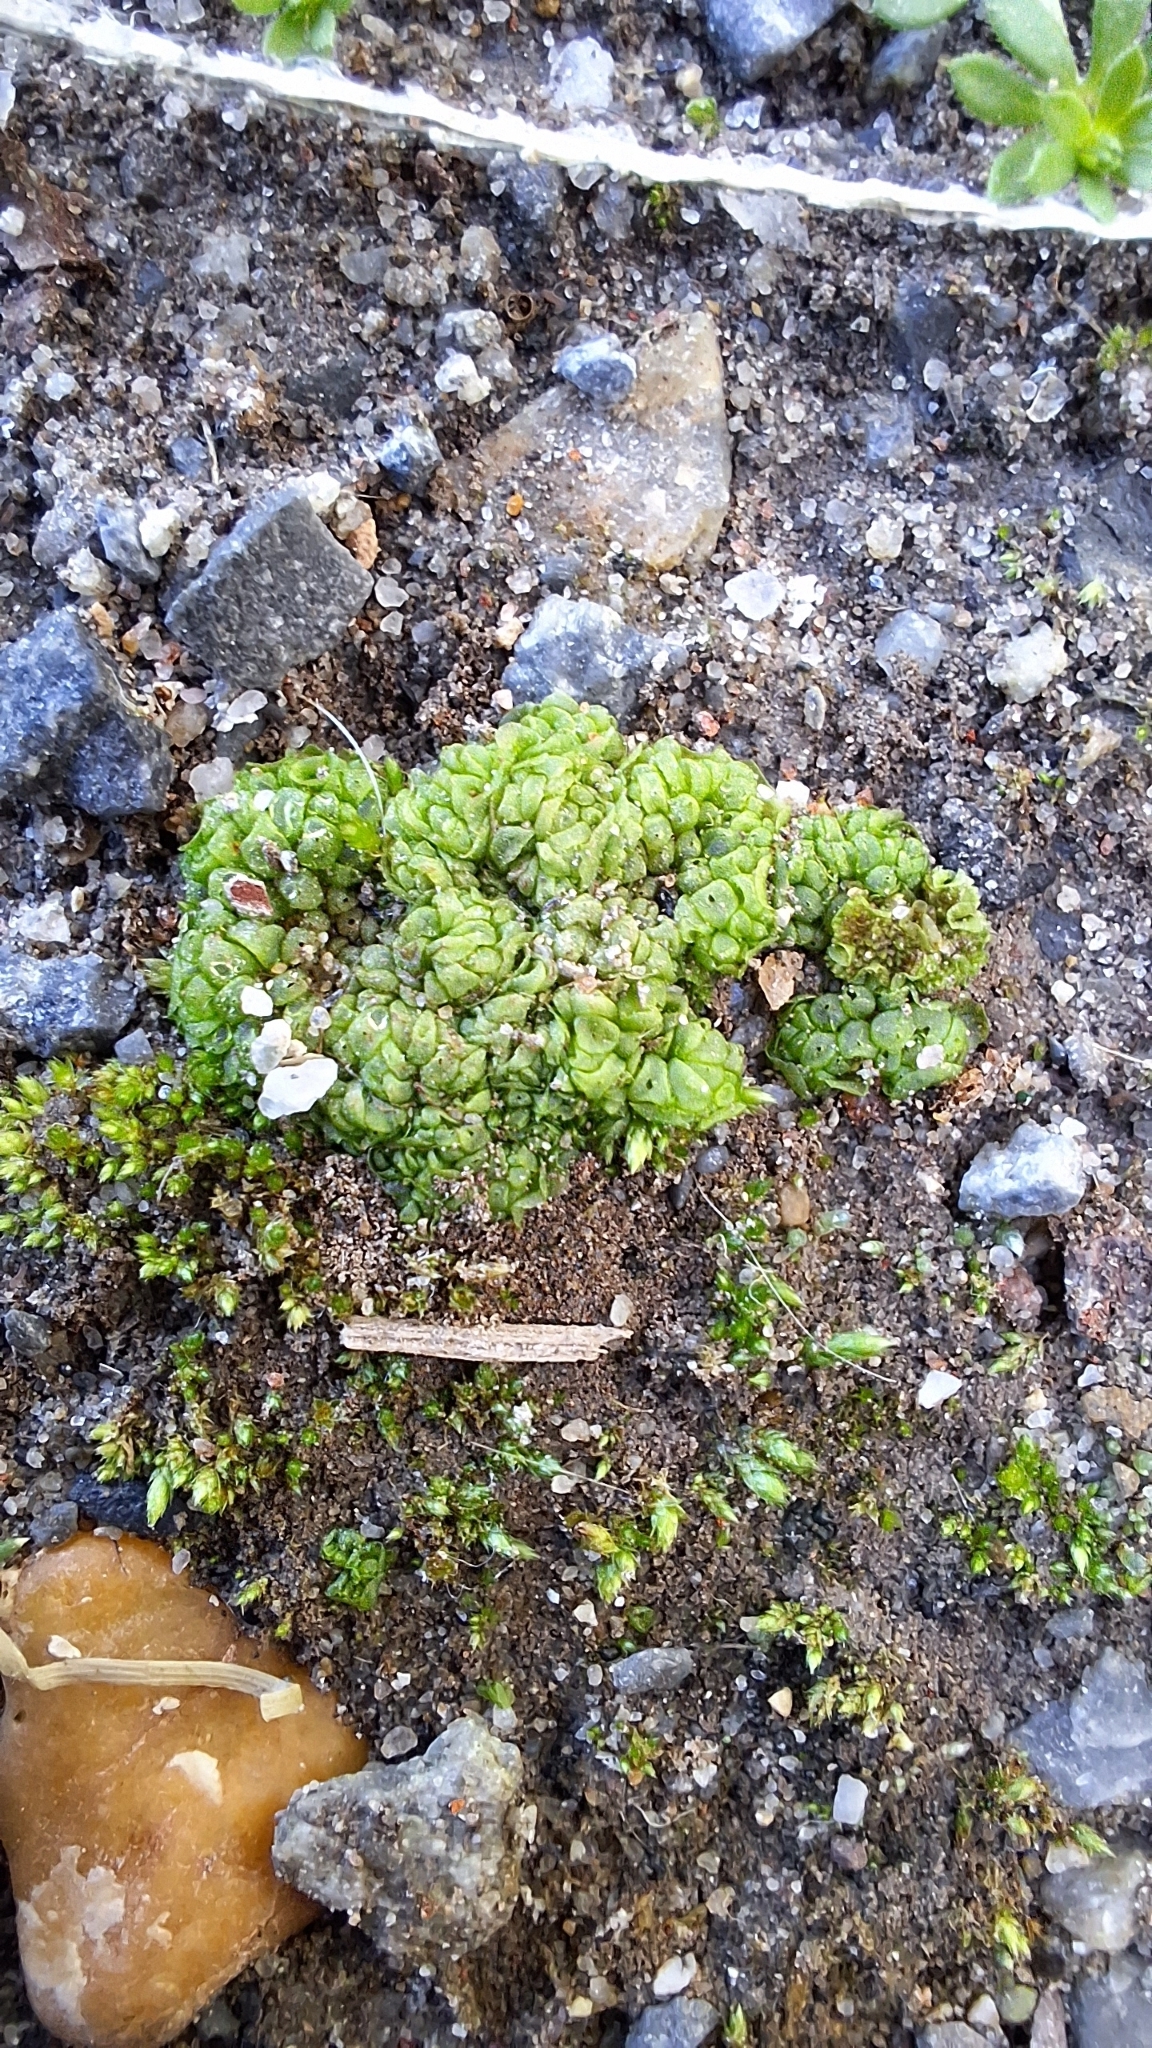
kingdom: Plantae
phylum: Marchantiophyta
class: Marchantiopsida
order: Sphaerocarpales
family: Sphaerocarpaceae
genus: Sphaerocarpos
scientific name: Sphaerocarpos texanus
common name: Texas balloonwort
